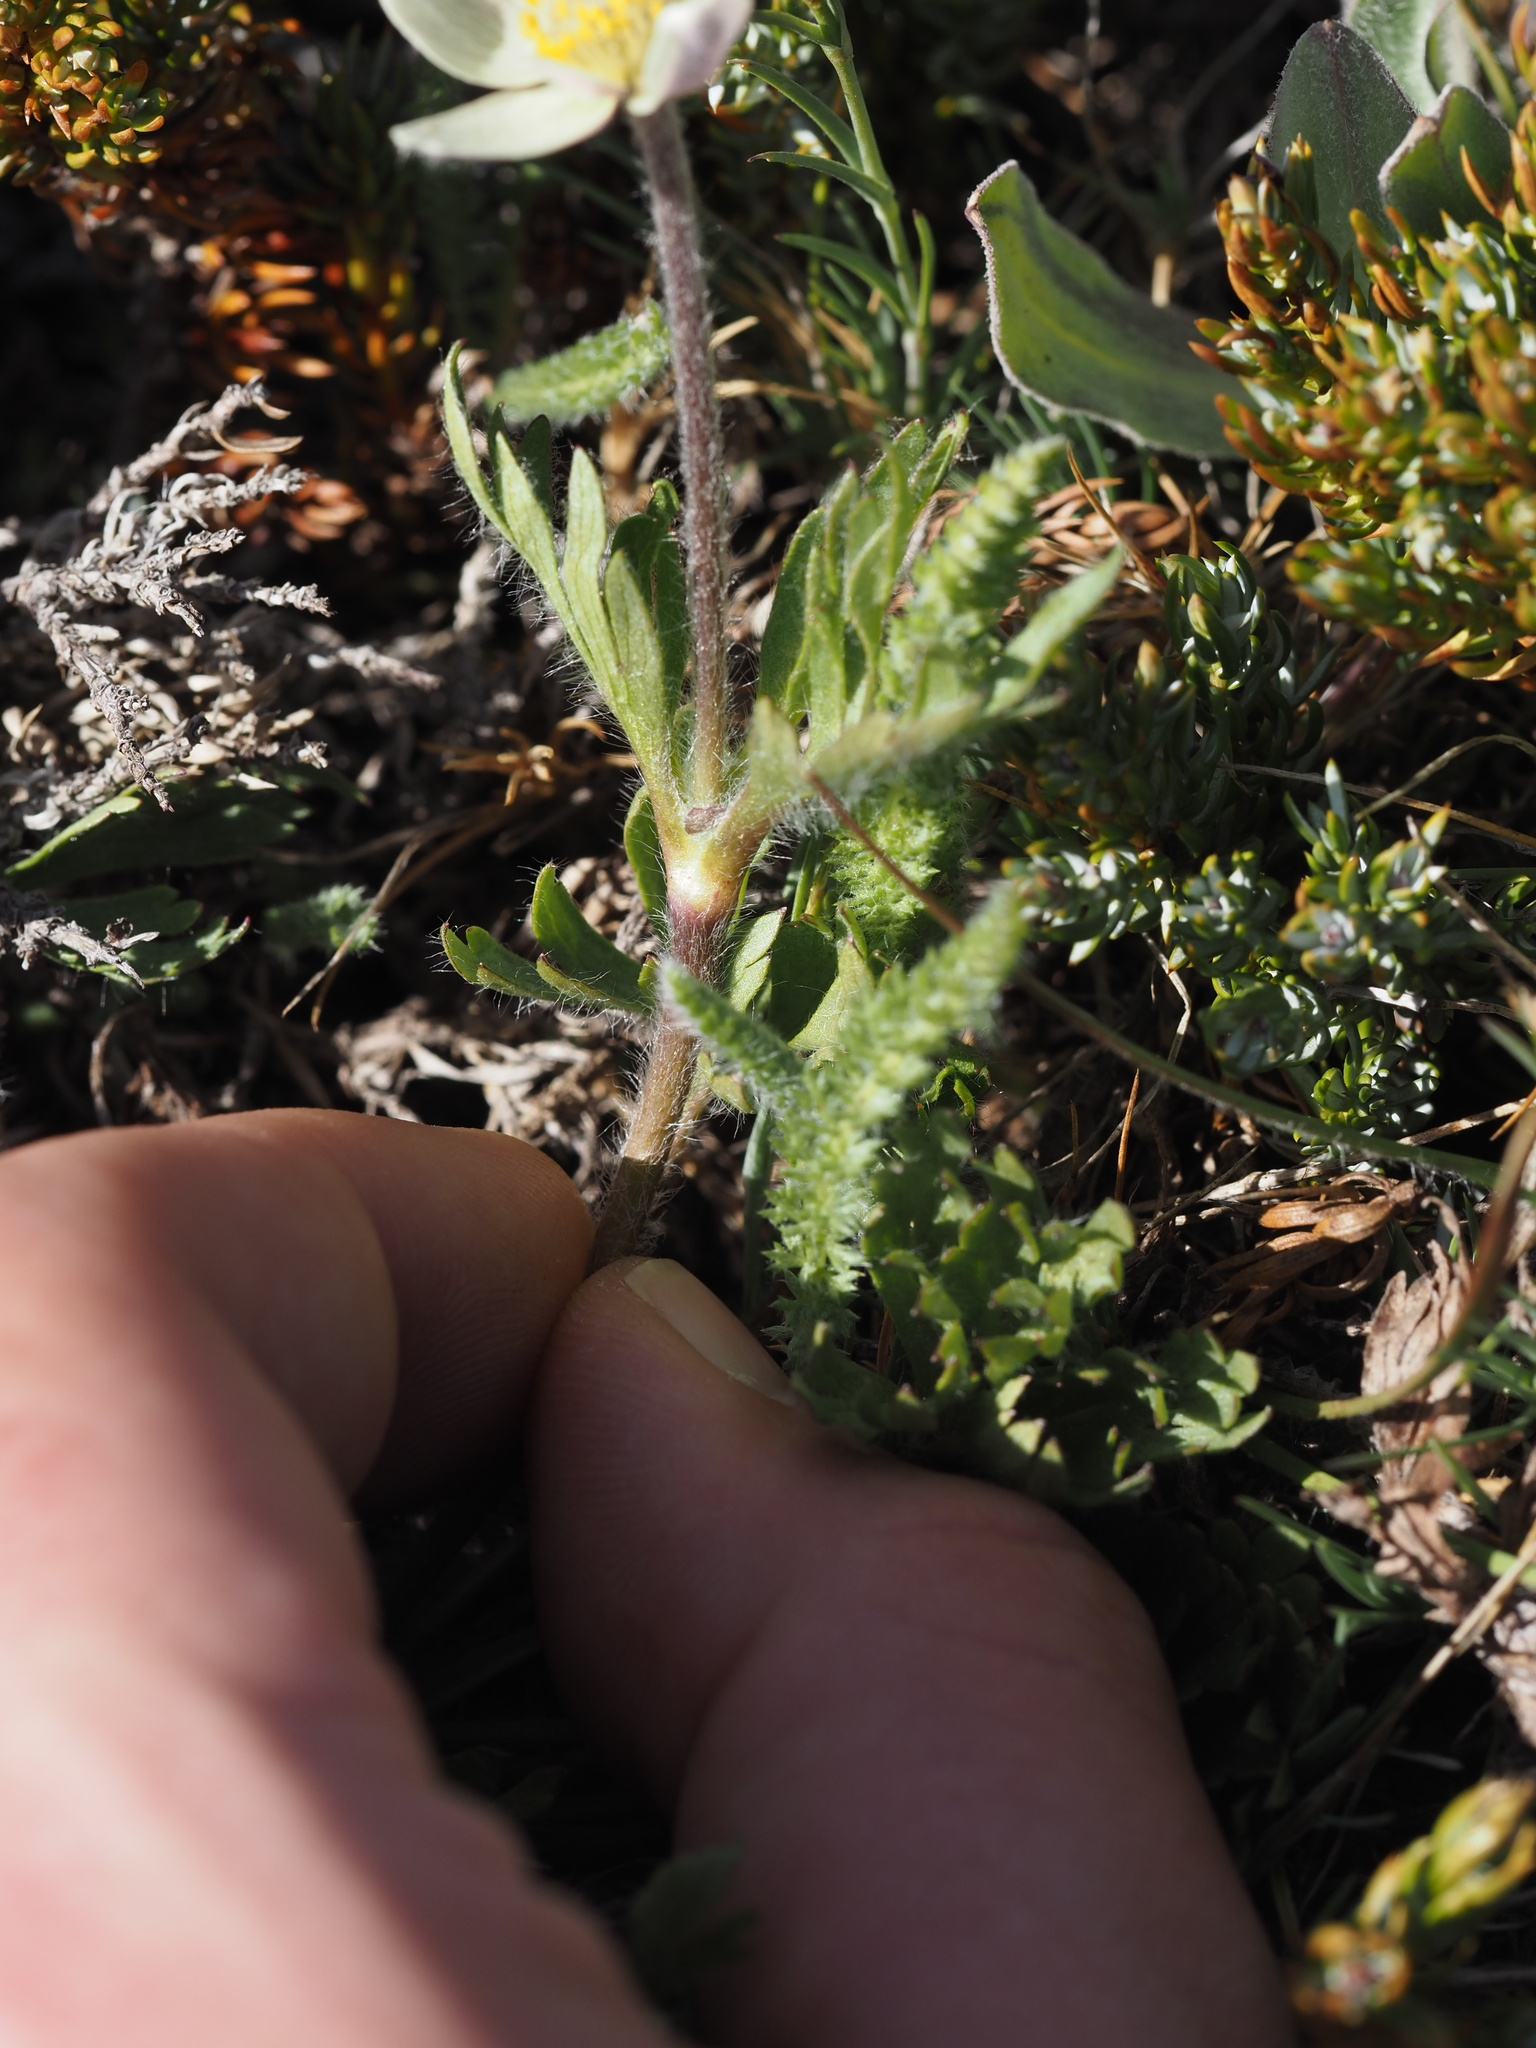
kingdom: Plantae
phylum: Tracheophyta
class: Magnoliopsida
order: Ranunculales
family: Ranunculaceae
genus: Anemone
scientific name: Anemone drummondii
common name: Drummond's anemone
